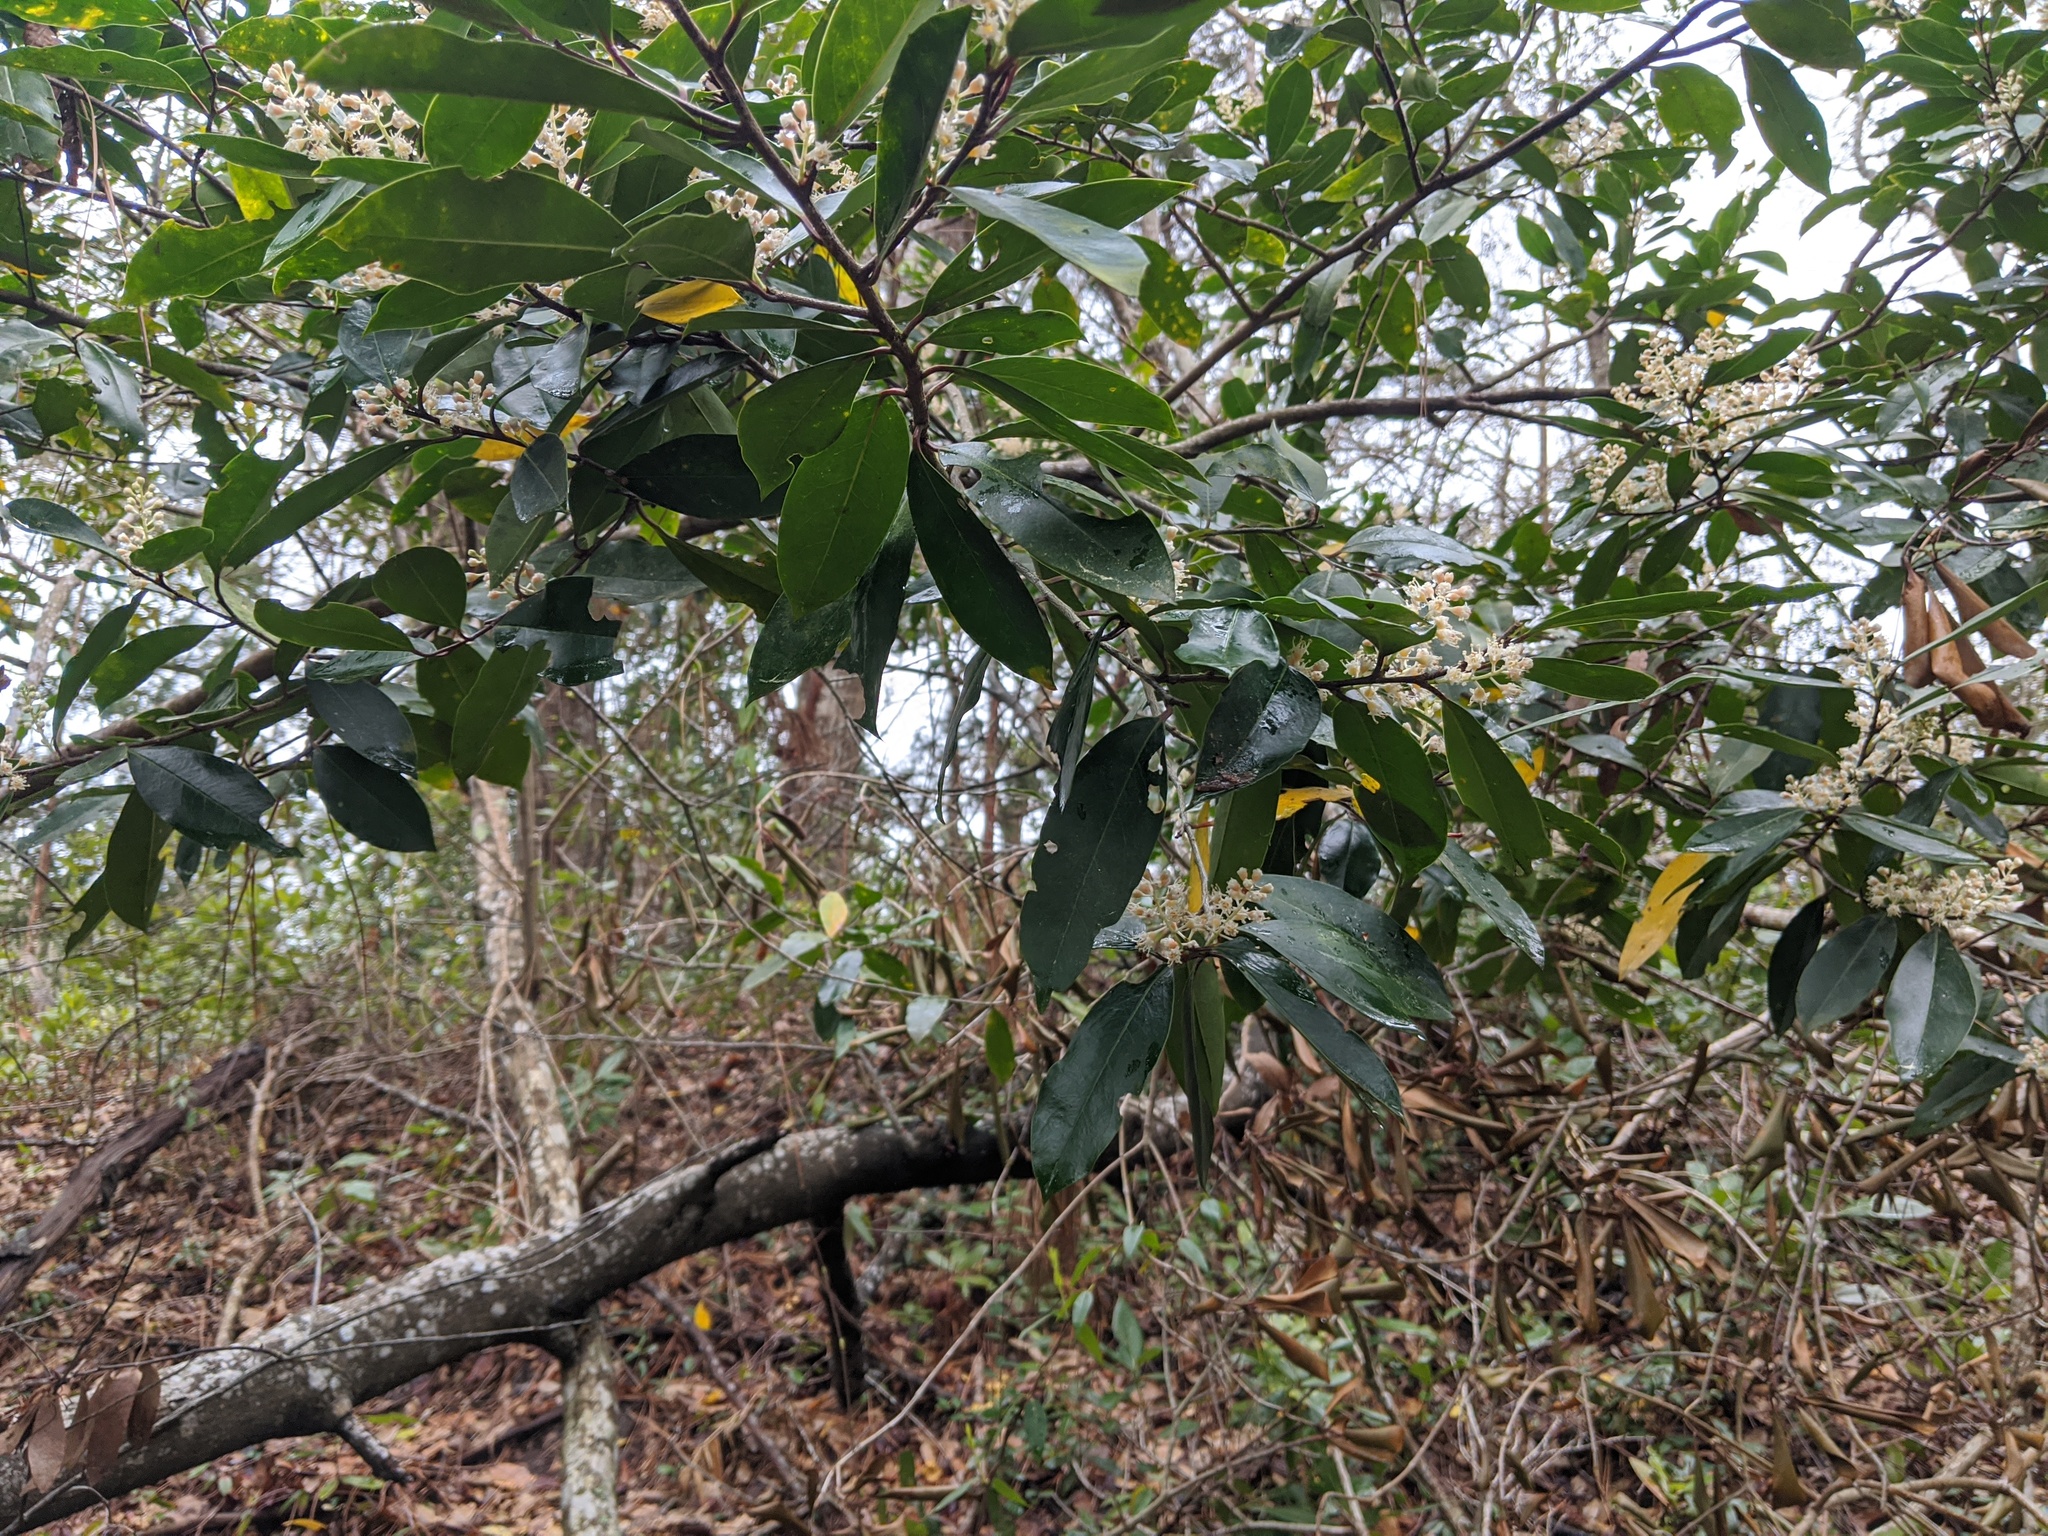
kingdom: Plantae
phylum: Tracheophyta
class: Magnoliopsida
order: Rosales
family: Rosaceae
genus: Prunus
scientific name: Prunus caroliniana
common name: Carolina laurel cherry
